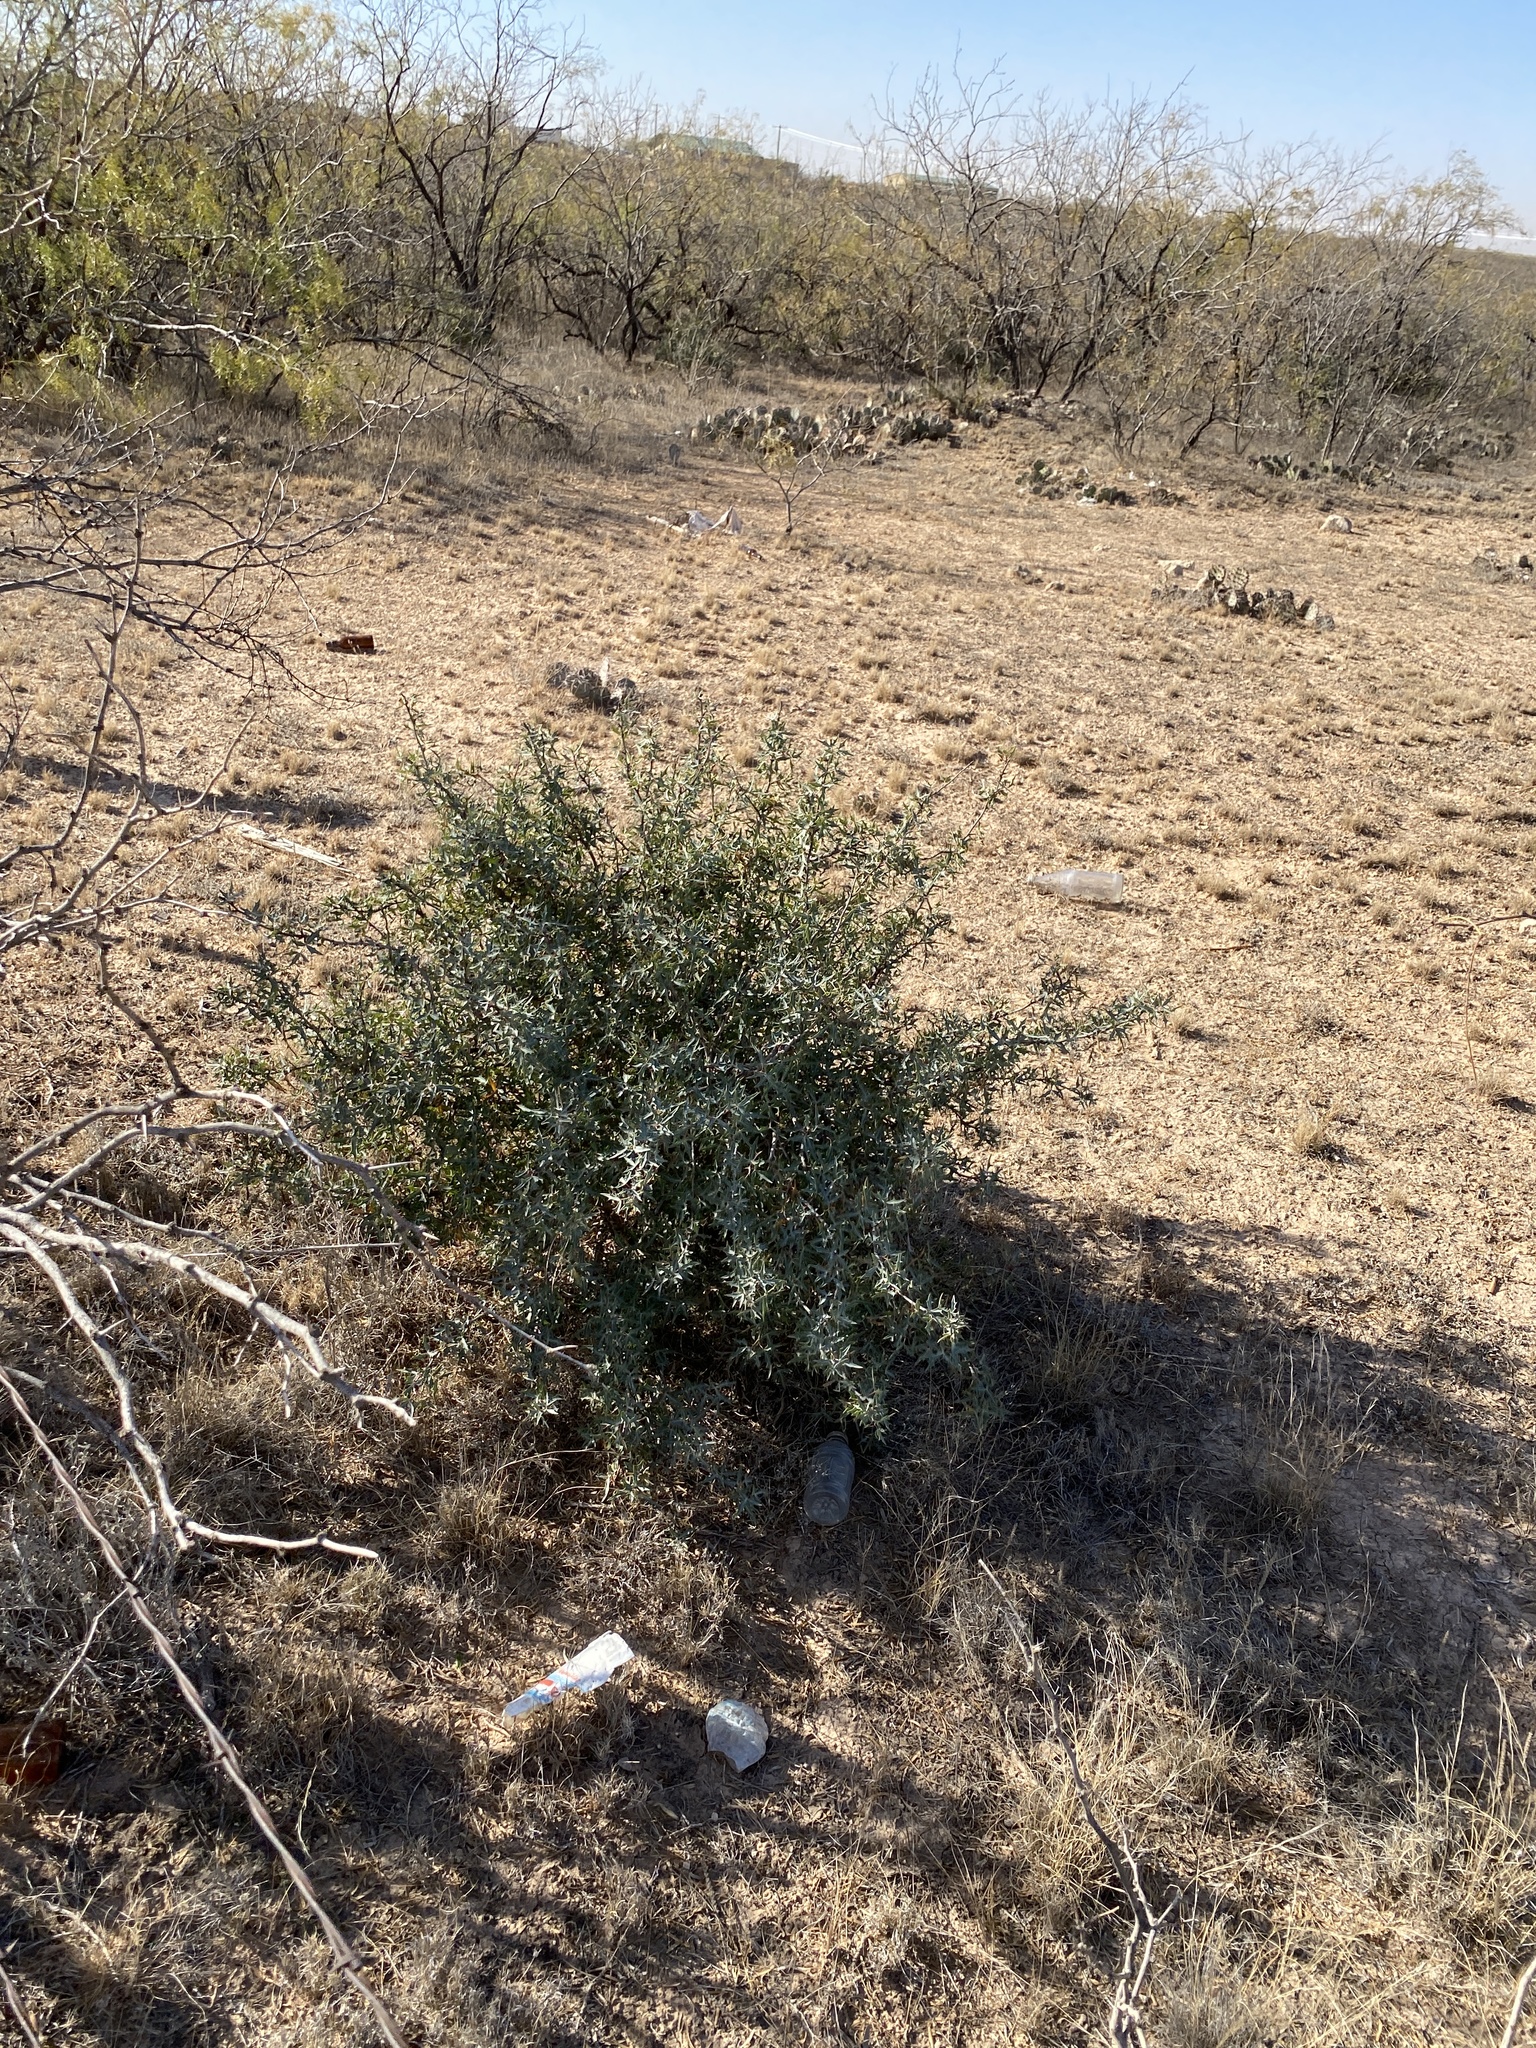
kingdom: Plantae
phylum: Tracheophyta
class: Magnoliopsida
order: Ranunculales
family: Berberidaceae
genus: Alloberberis
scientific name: Alloberberis trifoliolata
